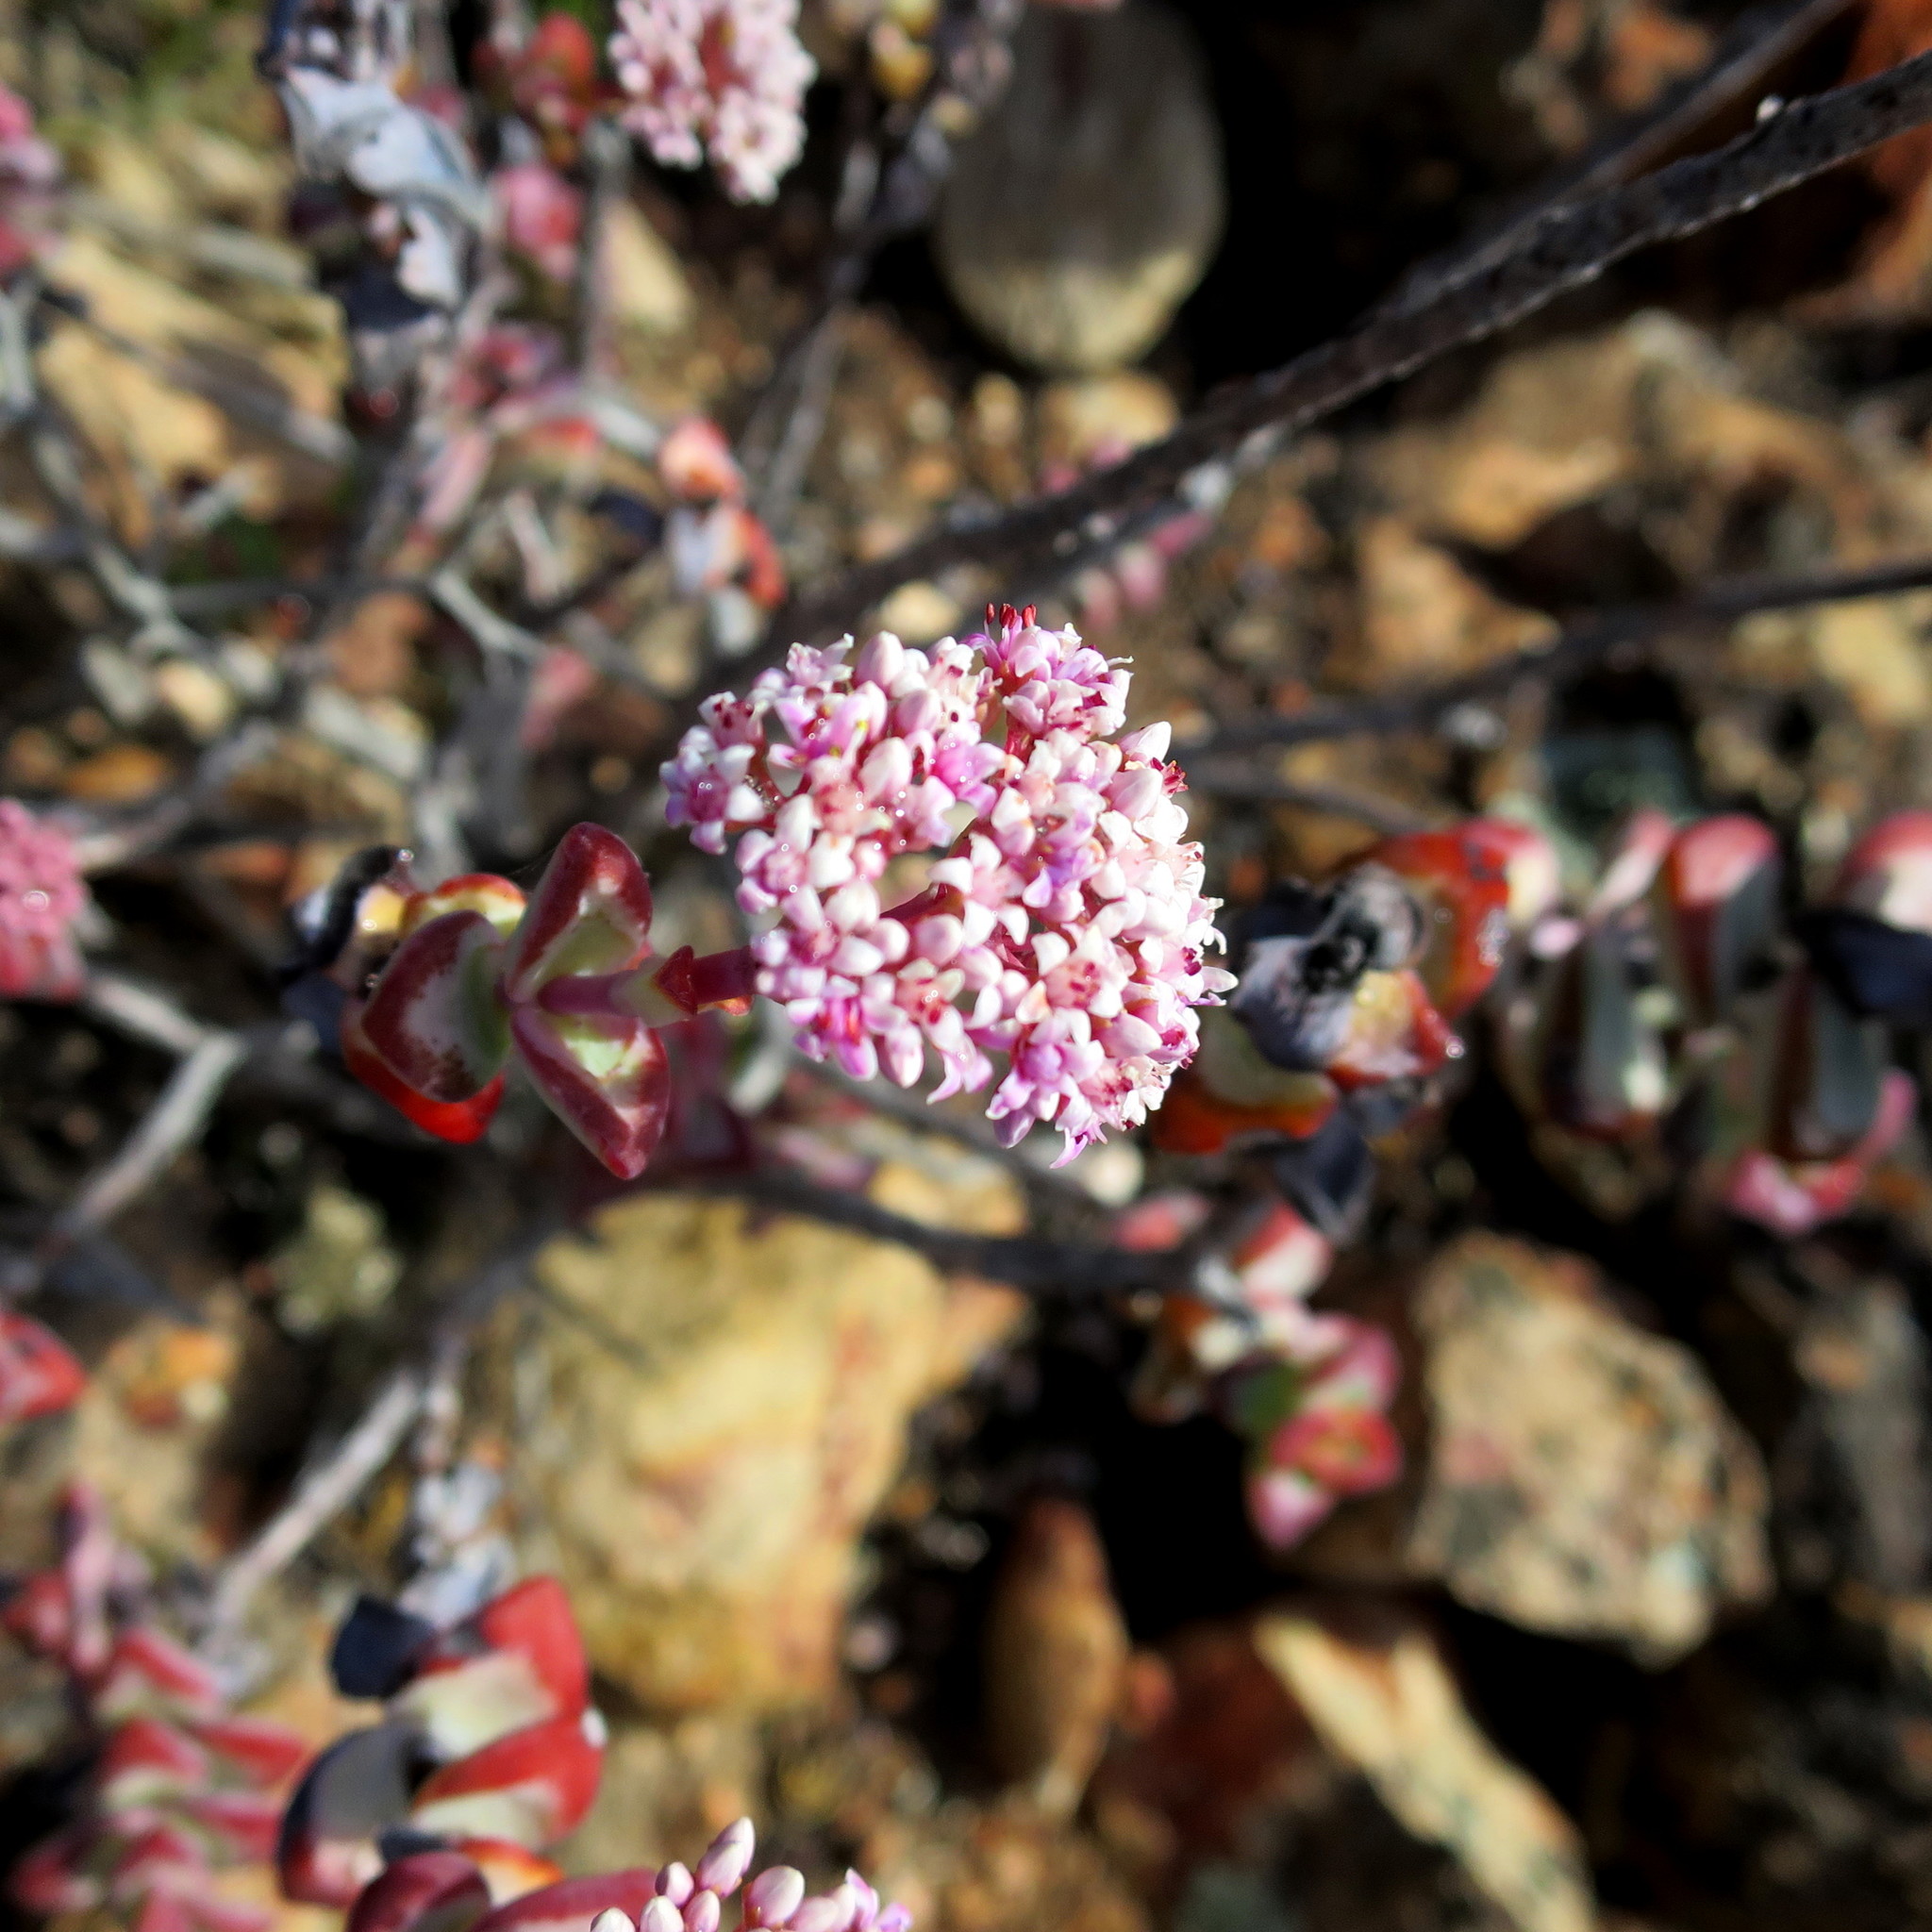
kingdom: Plantae
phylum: Tracheophyta
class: Magnoliopsida
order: Saxifragales
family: Crassulaceae
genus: Crassula
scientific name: Crassula rupestris
